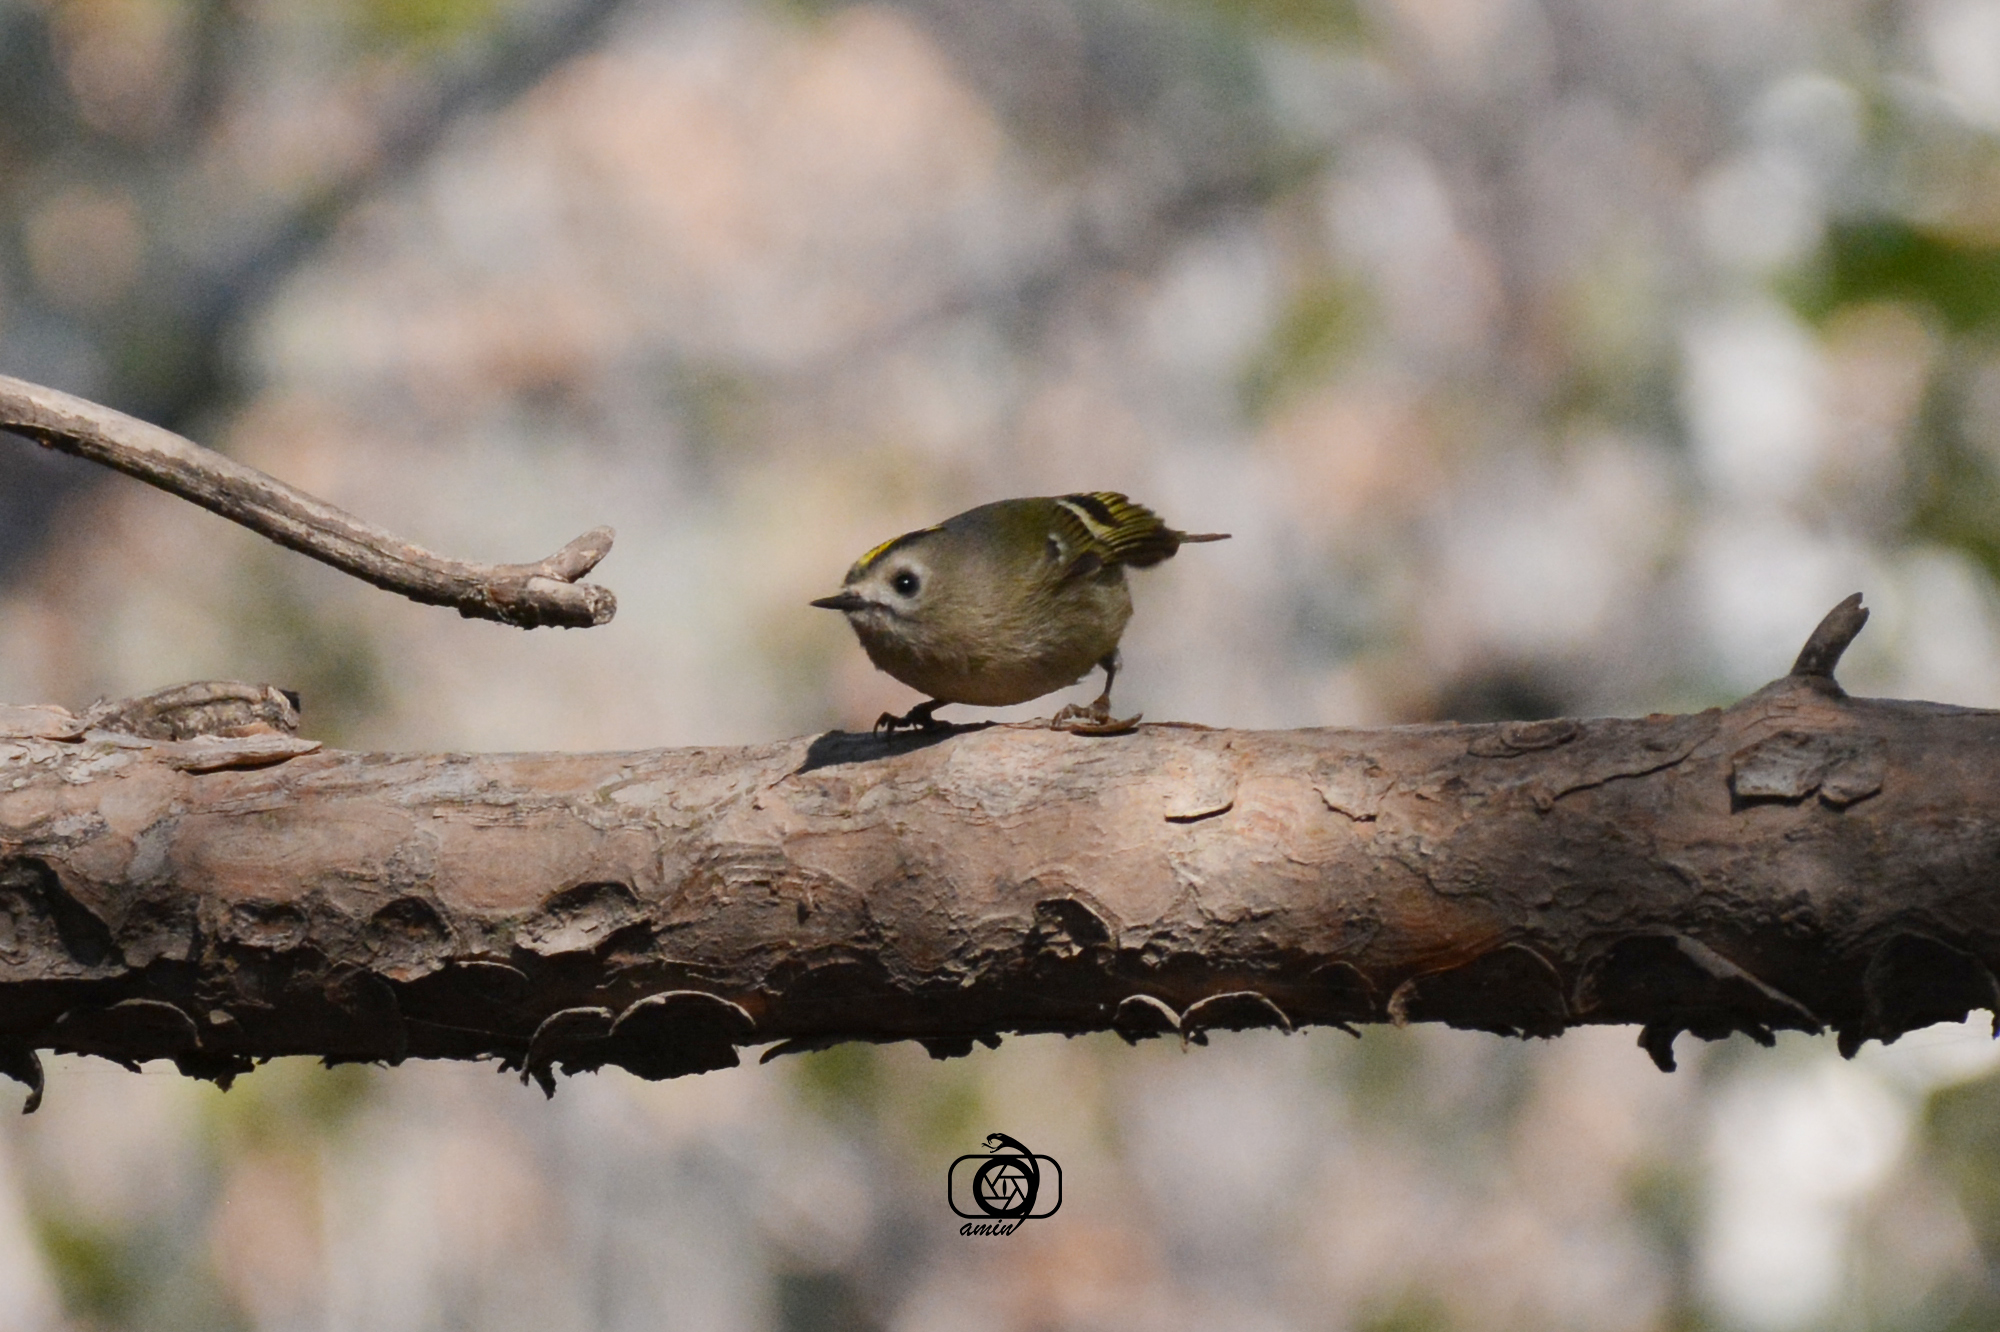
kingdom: Animalia
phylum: Chordata
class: Aves
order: Passeriformes
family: Regulidae
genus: Regulus
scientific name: Regulus regulus
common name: Goldcrest
